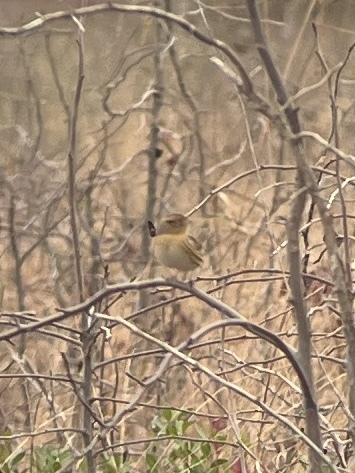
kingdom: Animalia
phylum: Chordata
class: Aves
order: Passeriformes
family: Passerellidae
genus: Ammospiza
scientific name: Ammospiza leconteii
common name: Le conte's sparrow
